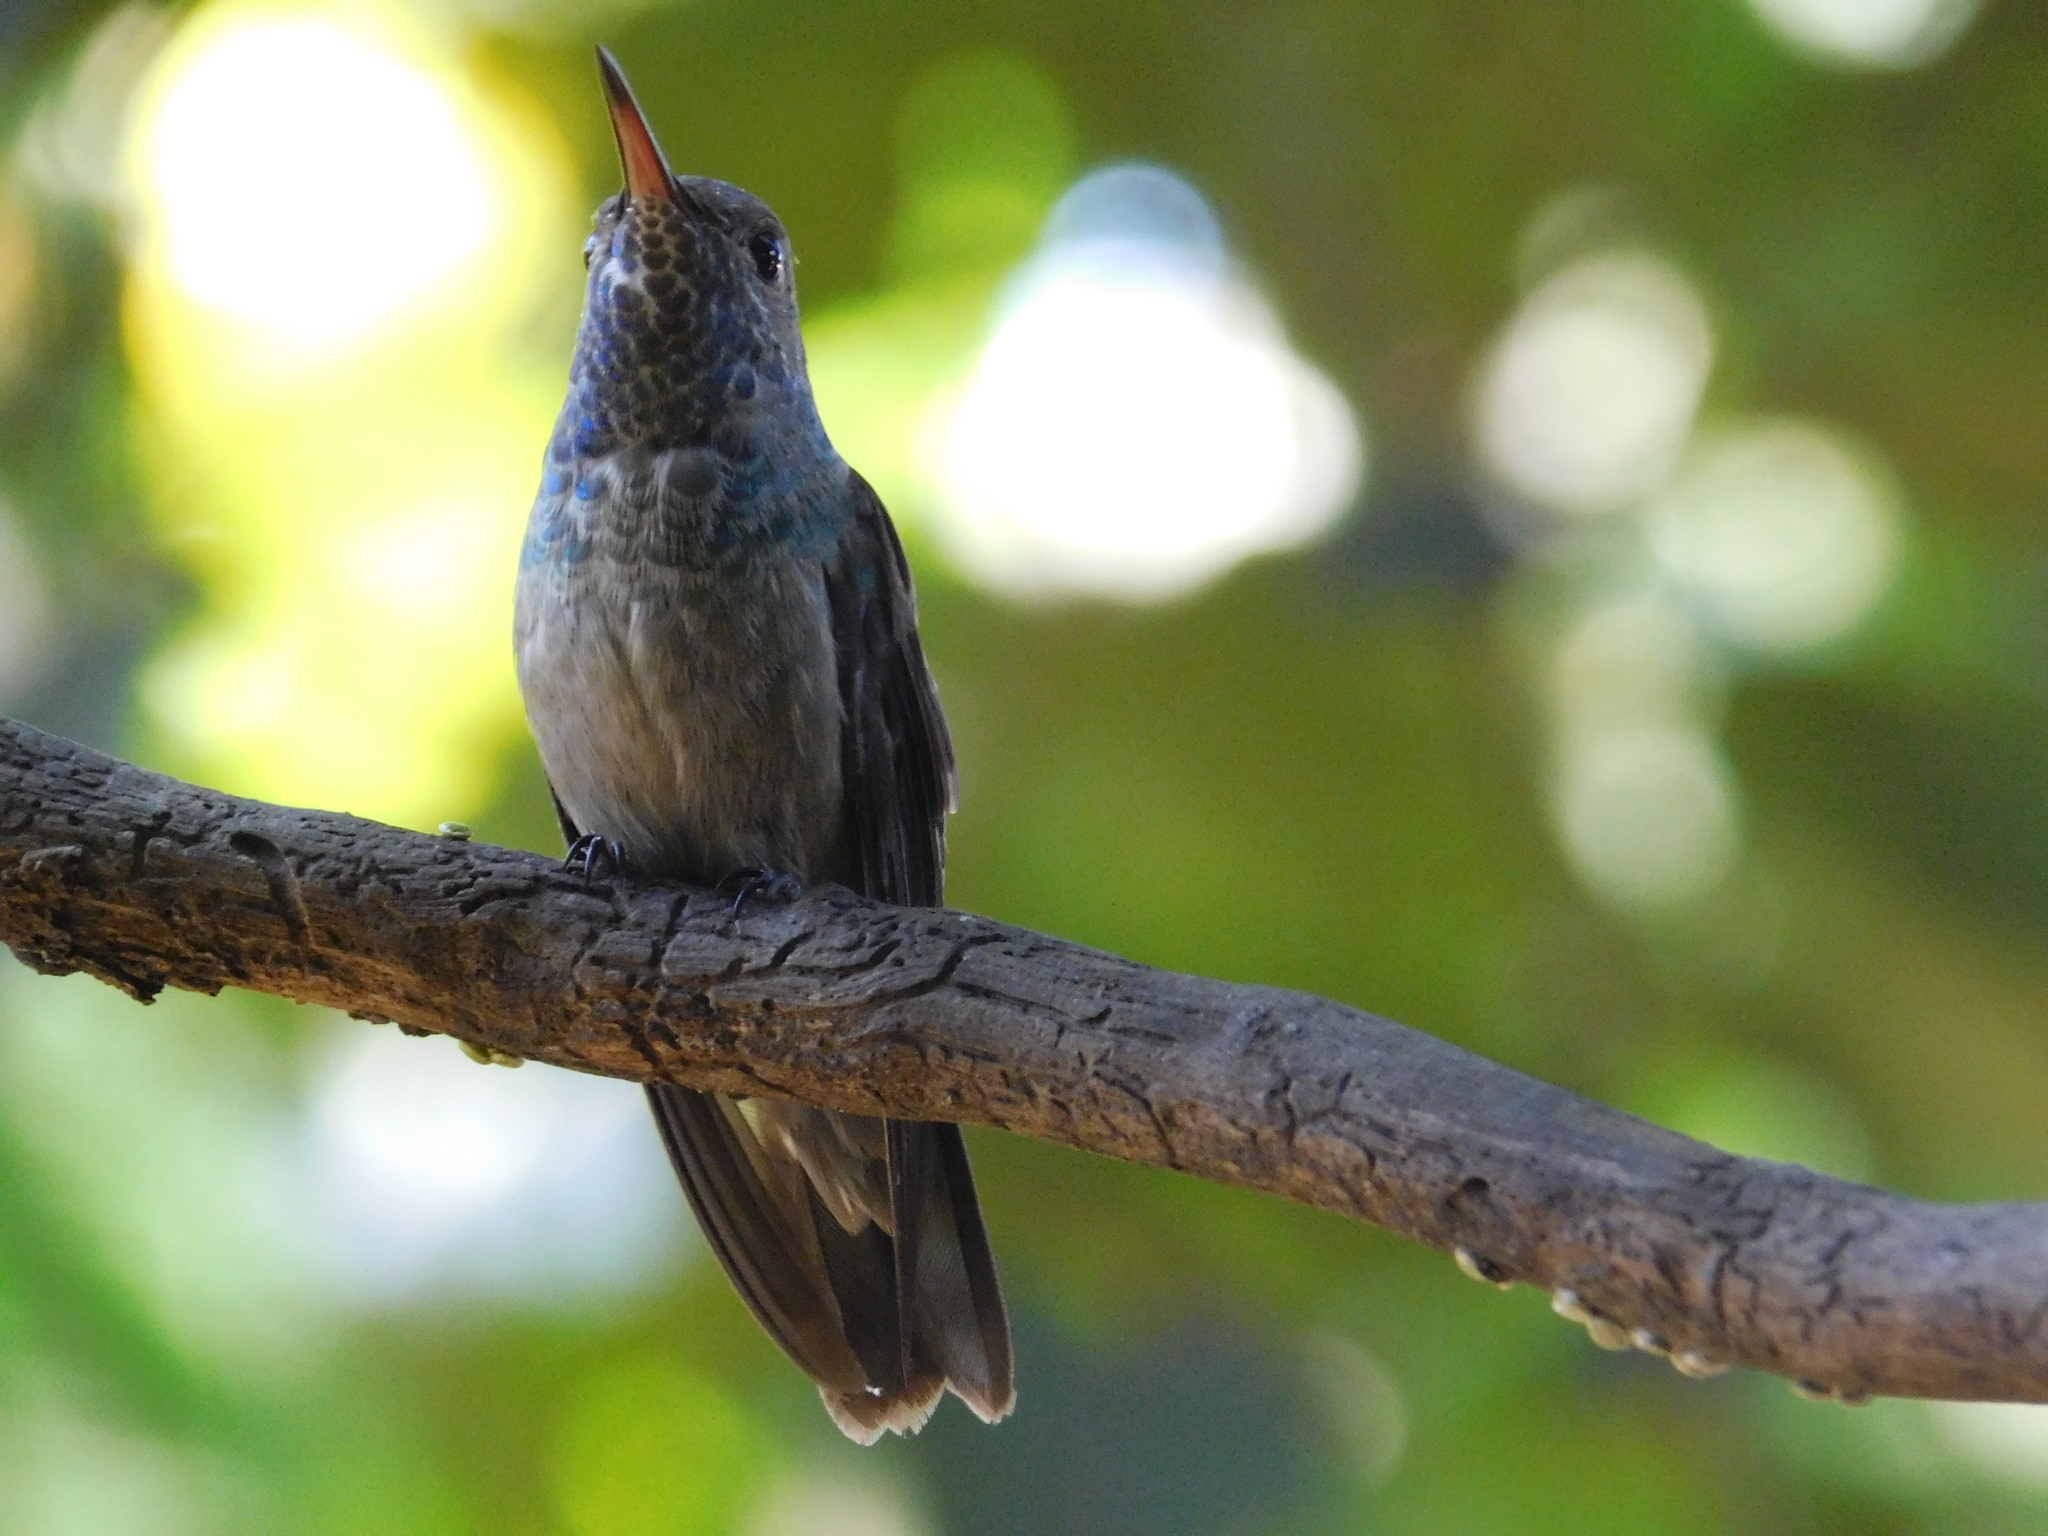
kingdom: Animalia
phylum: Chordata
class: Aves
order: Apodiformes
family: Trochilidae
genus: Chrysuronia
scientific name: Chrysuronia versicolor
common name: Versicolored emerald
